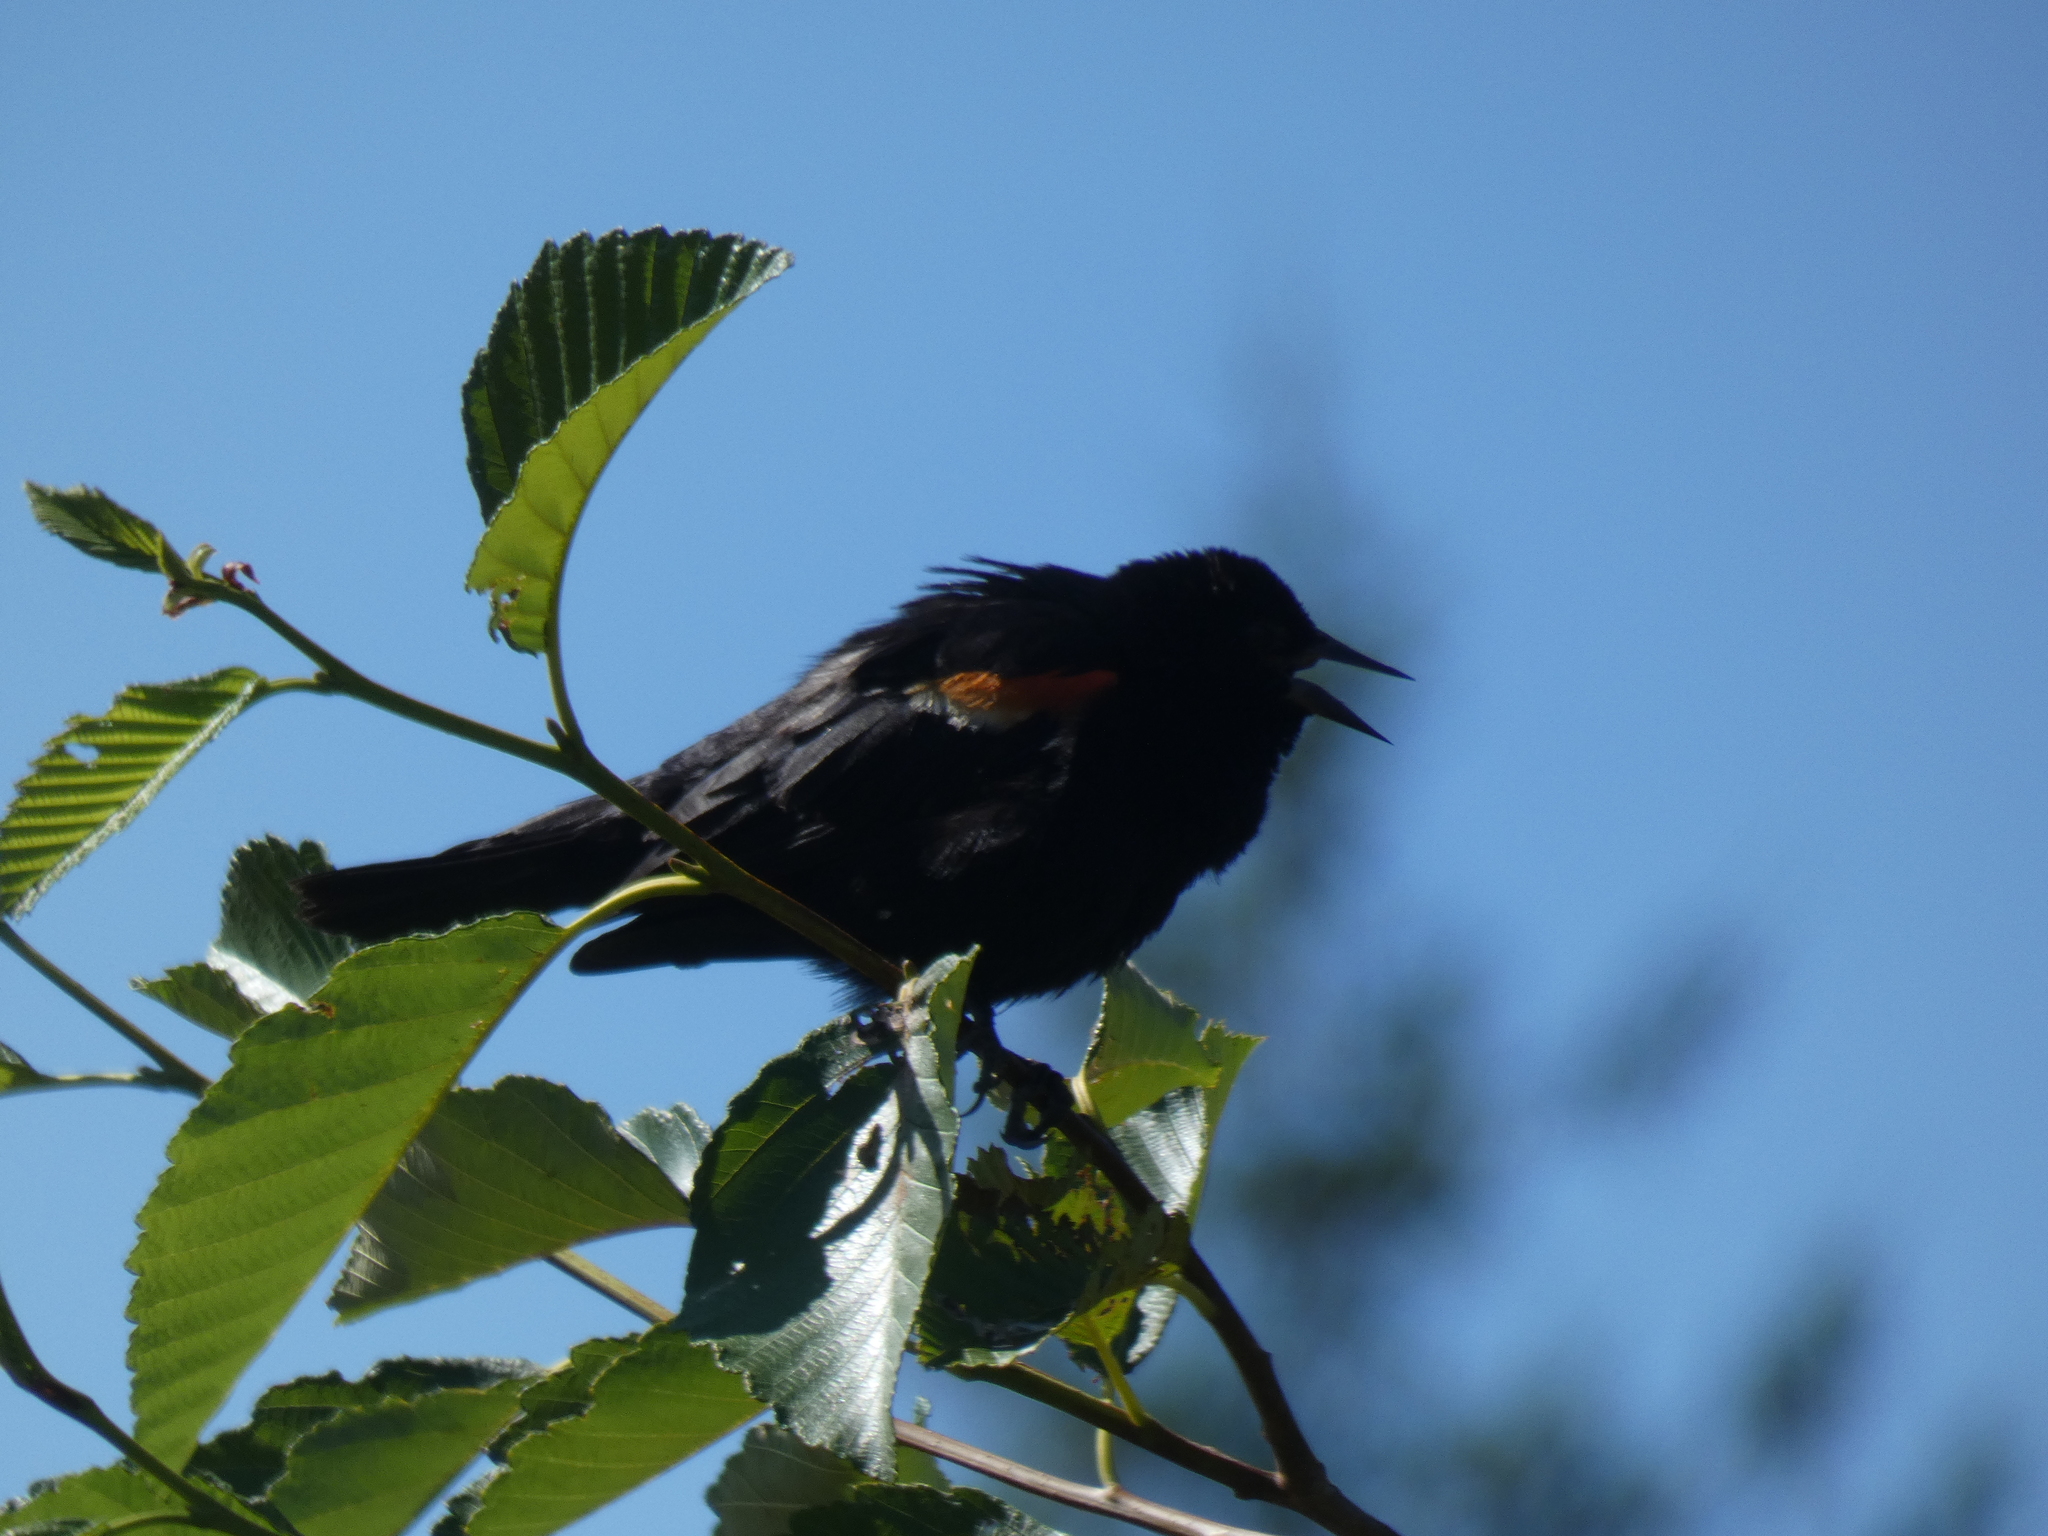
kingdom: Animalia
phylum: Chordata
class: Aves
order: Passeriformes
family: Icteridae
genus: Agelaius
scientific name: Agelaius phoeniceus
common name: Red-winged blackbird
